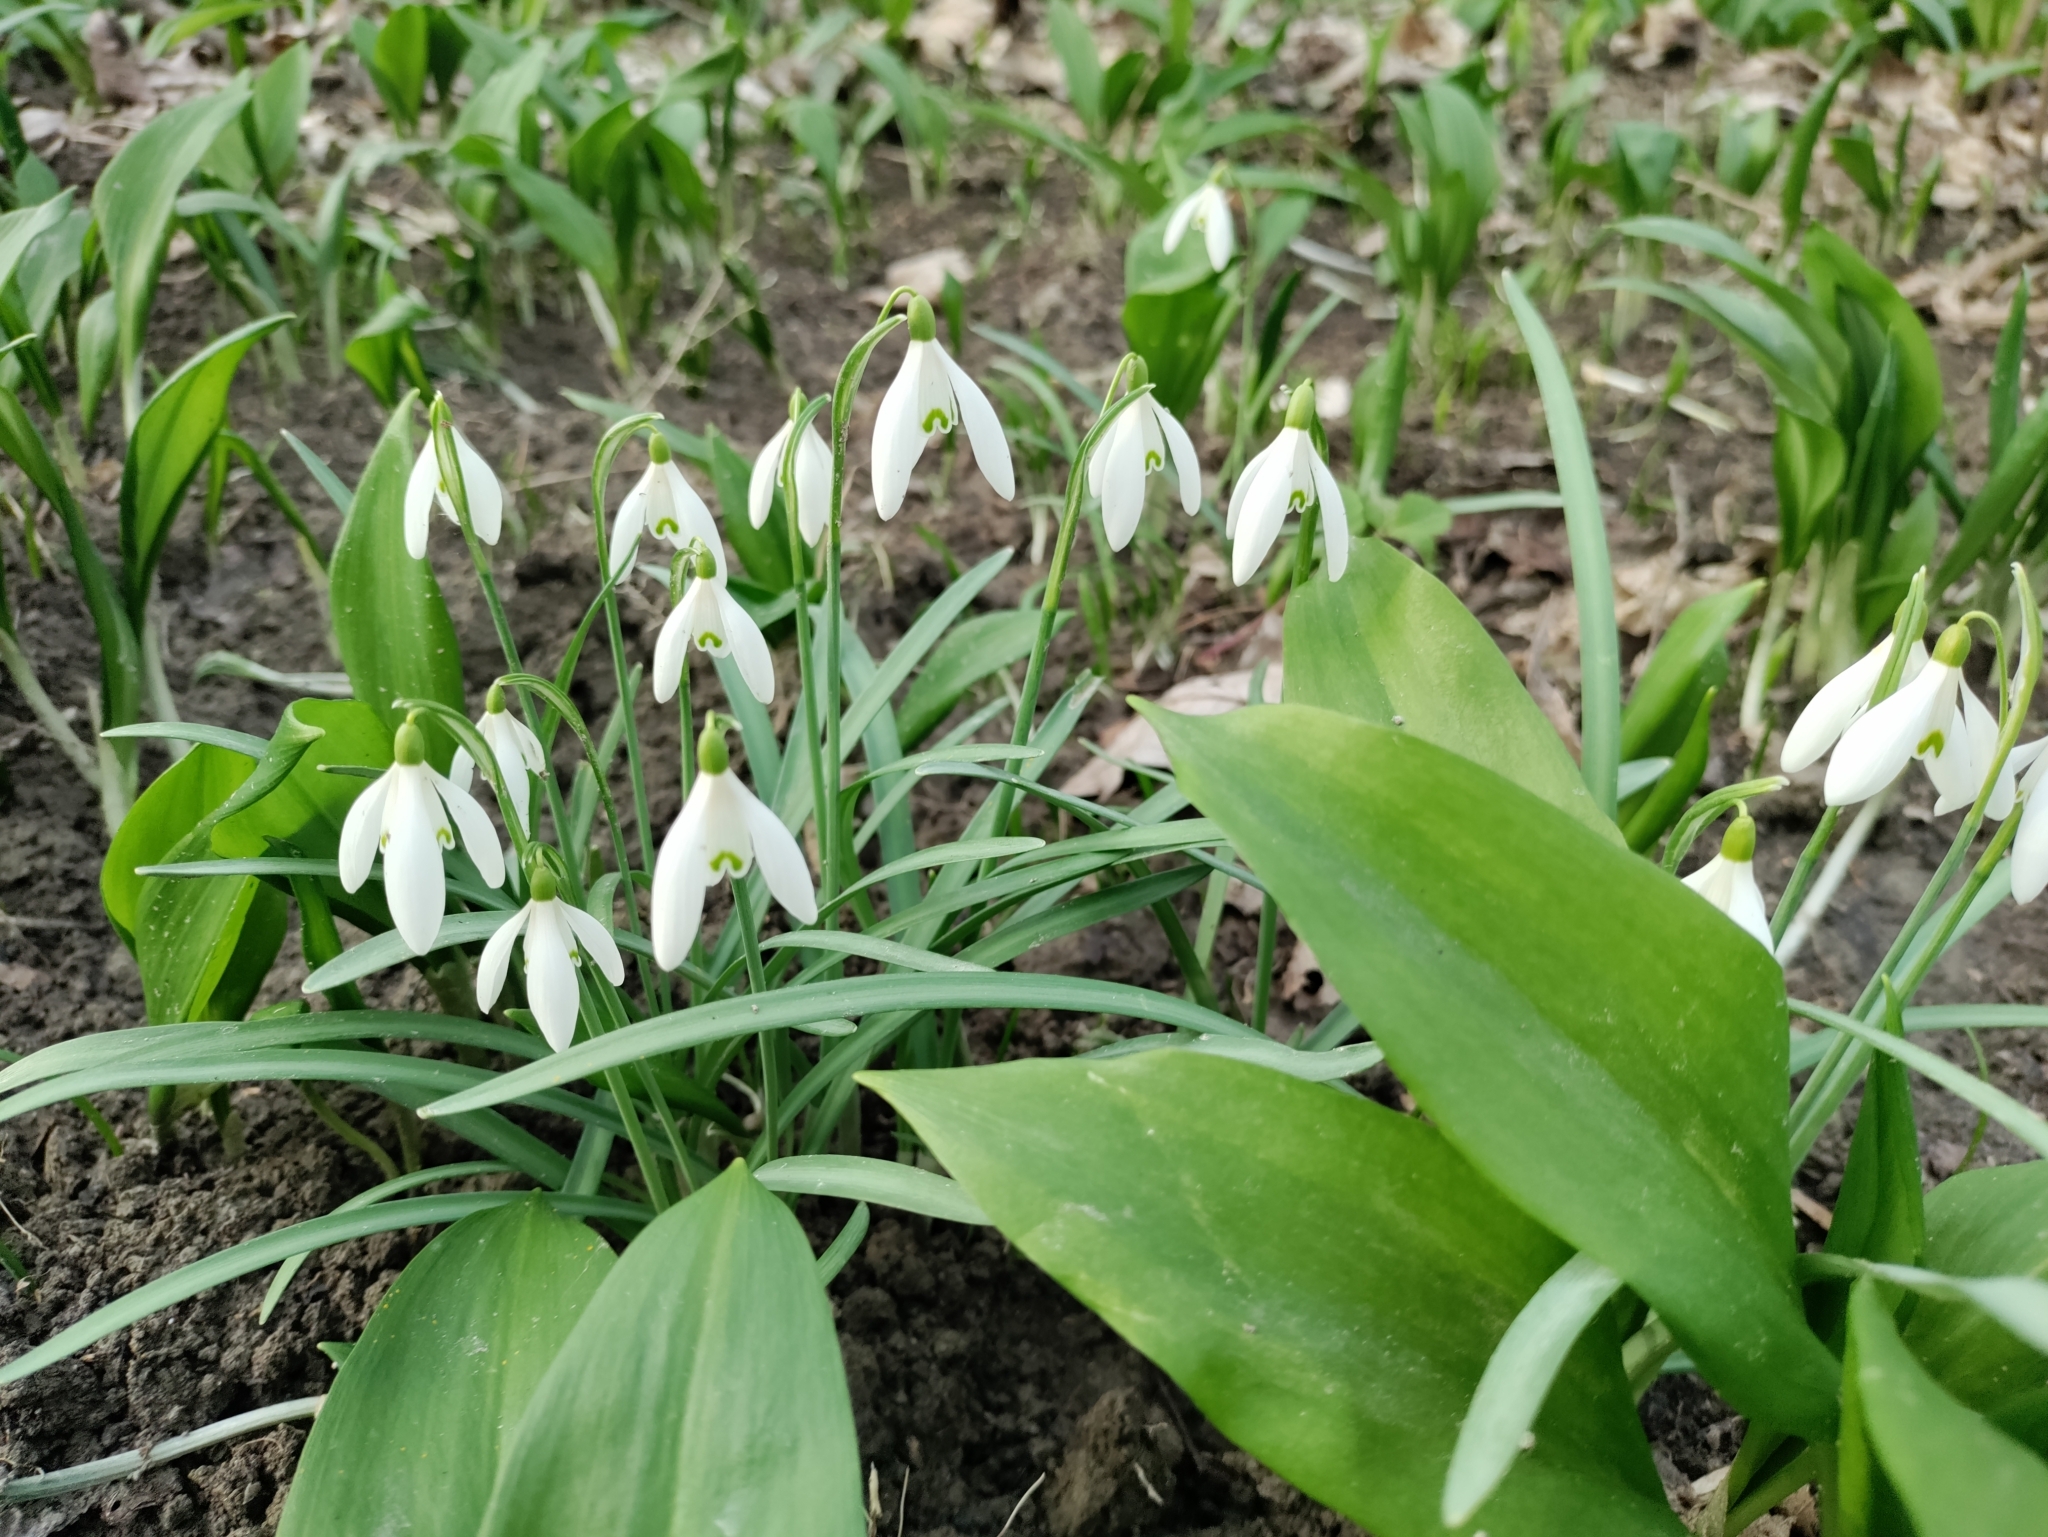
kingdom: Plantae
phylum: Tracheophyta
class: Liliopsida
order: Asparagales
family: Amaryllidaceae
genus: Galanthus
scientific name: Galanthus nivalis
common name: Snowdrop
